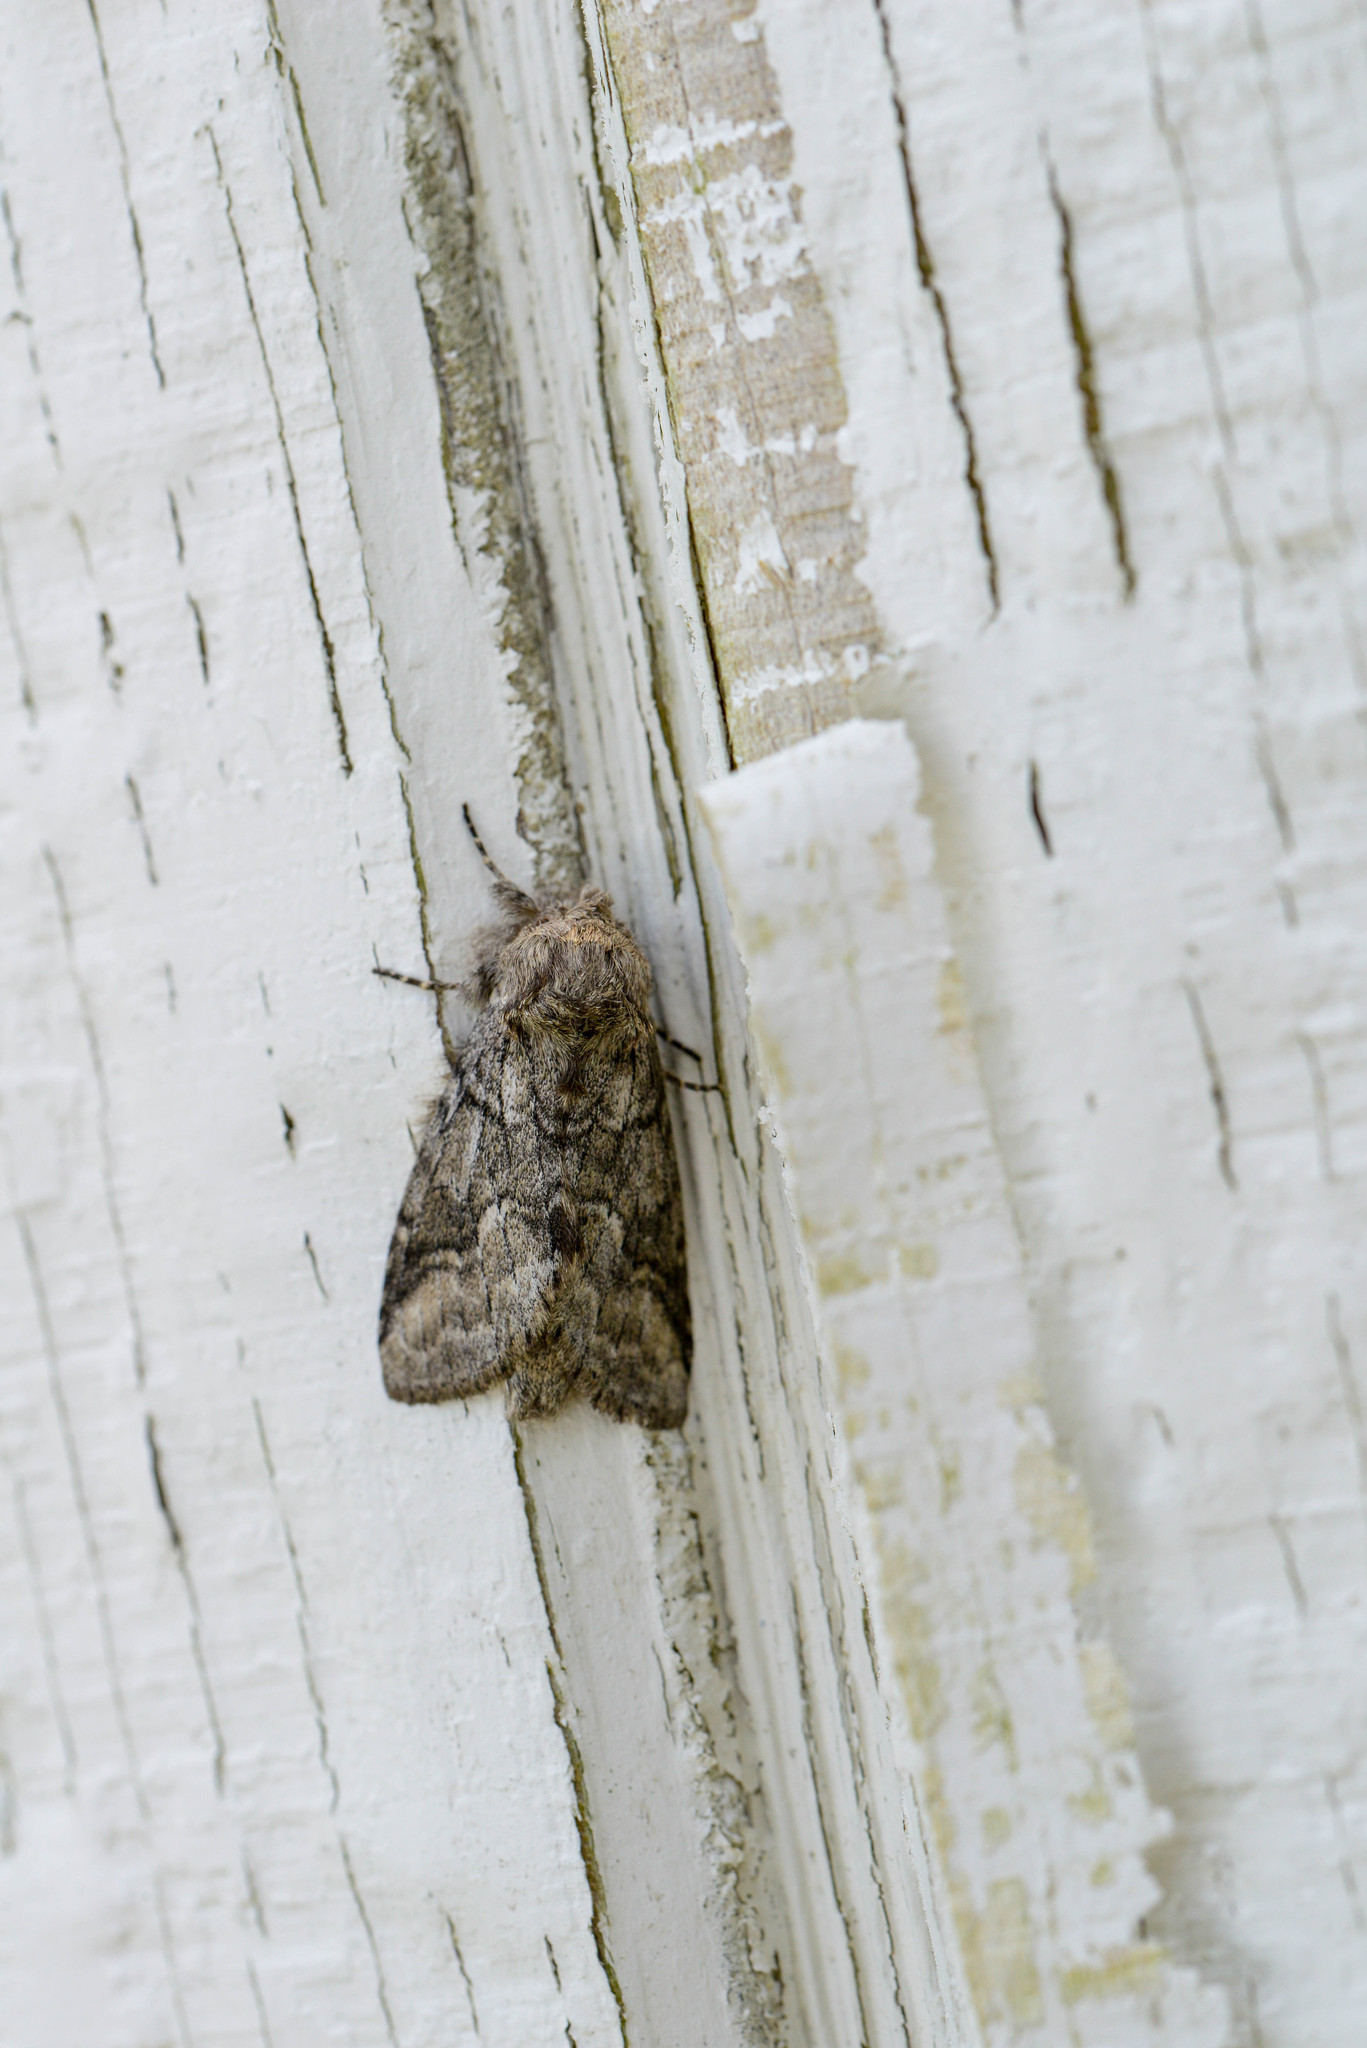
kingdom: Animalia
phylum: Arthropoda
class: Insecta
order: Lepidoptera
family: Notodontidae
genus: Lochmaeus
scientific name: Lochmaeus bilineata
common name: Double-lined prominent
